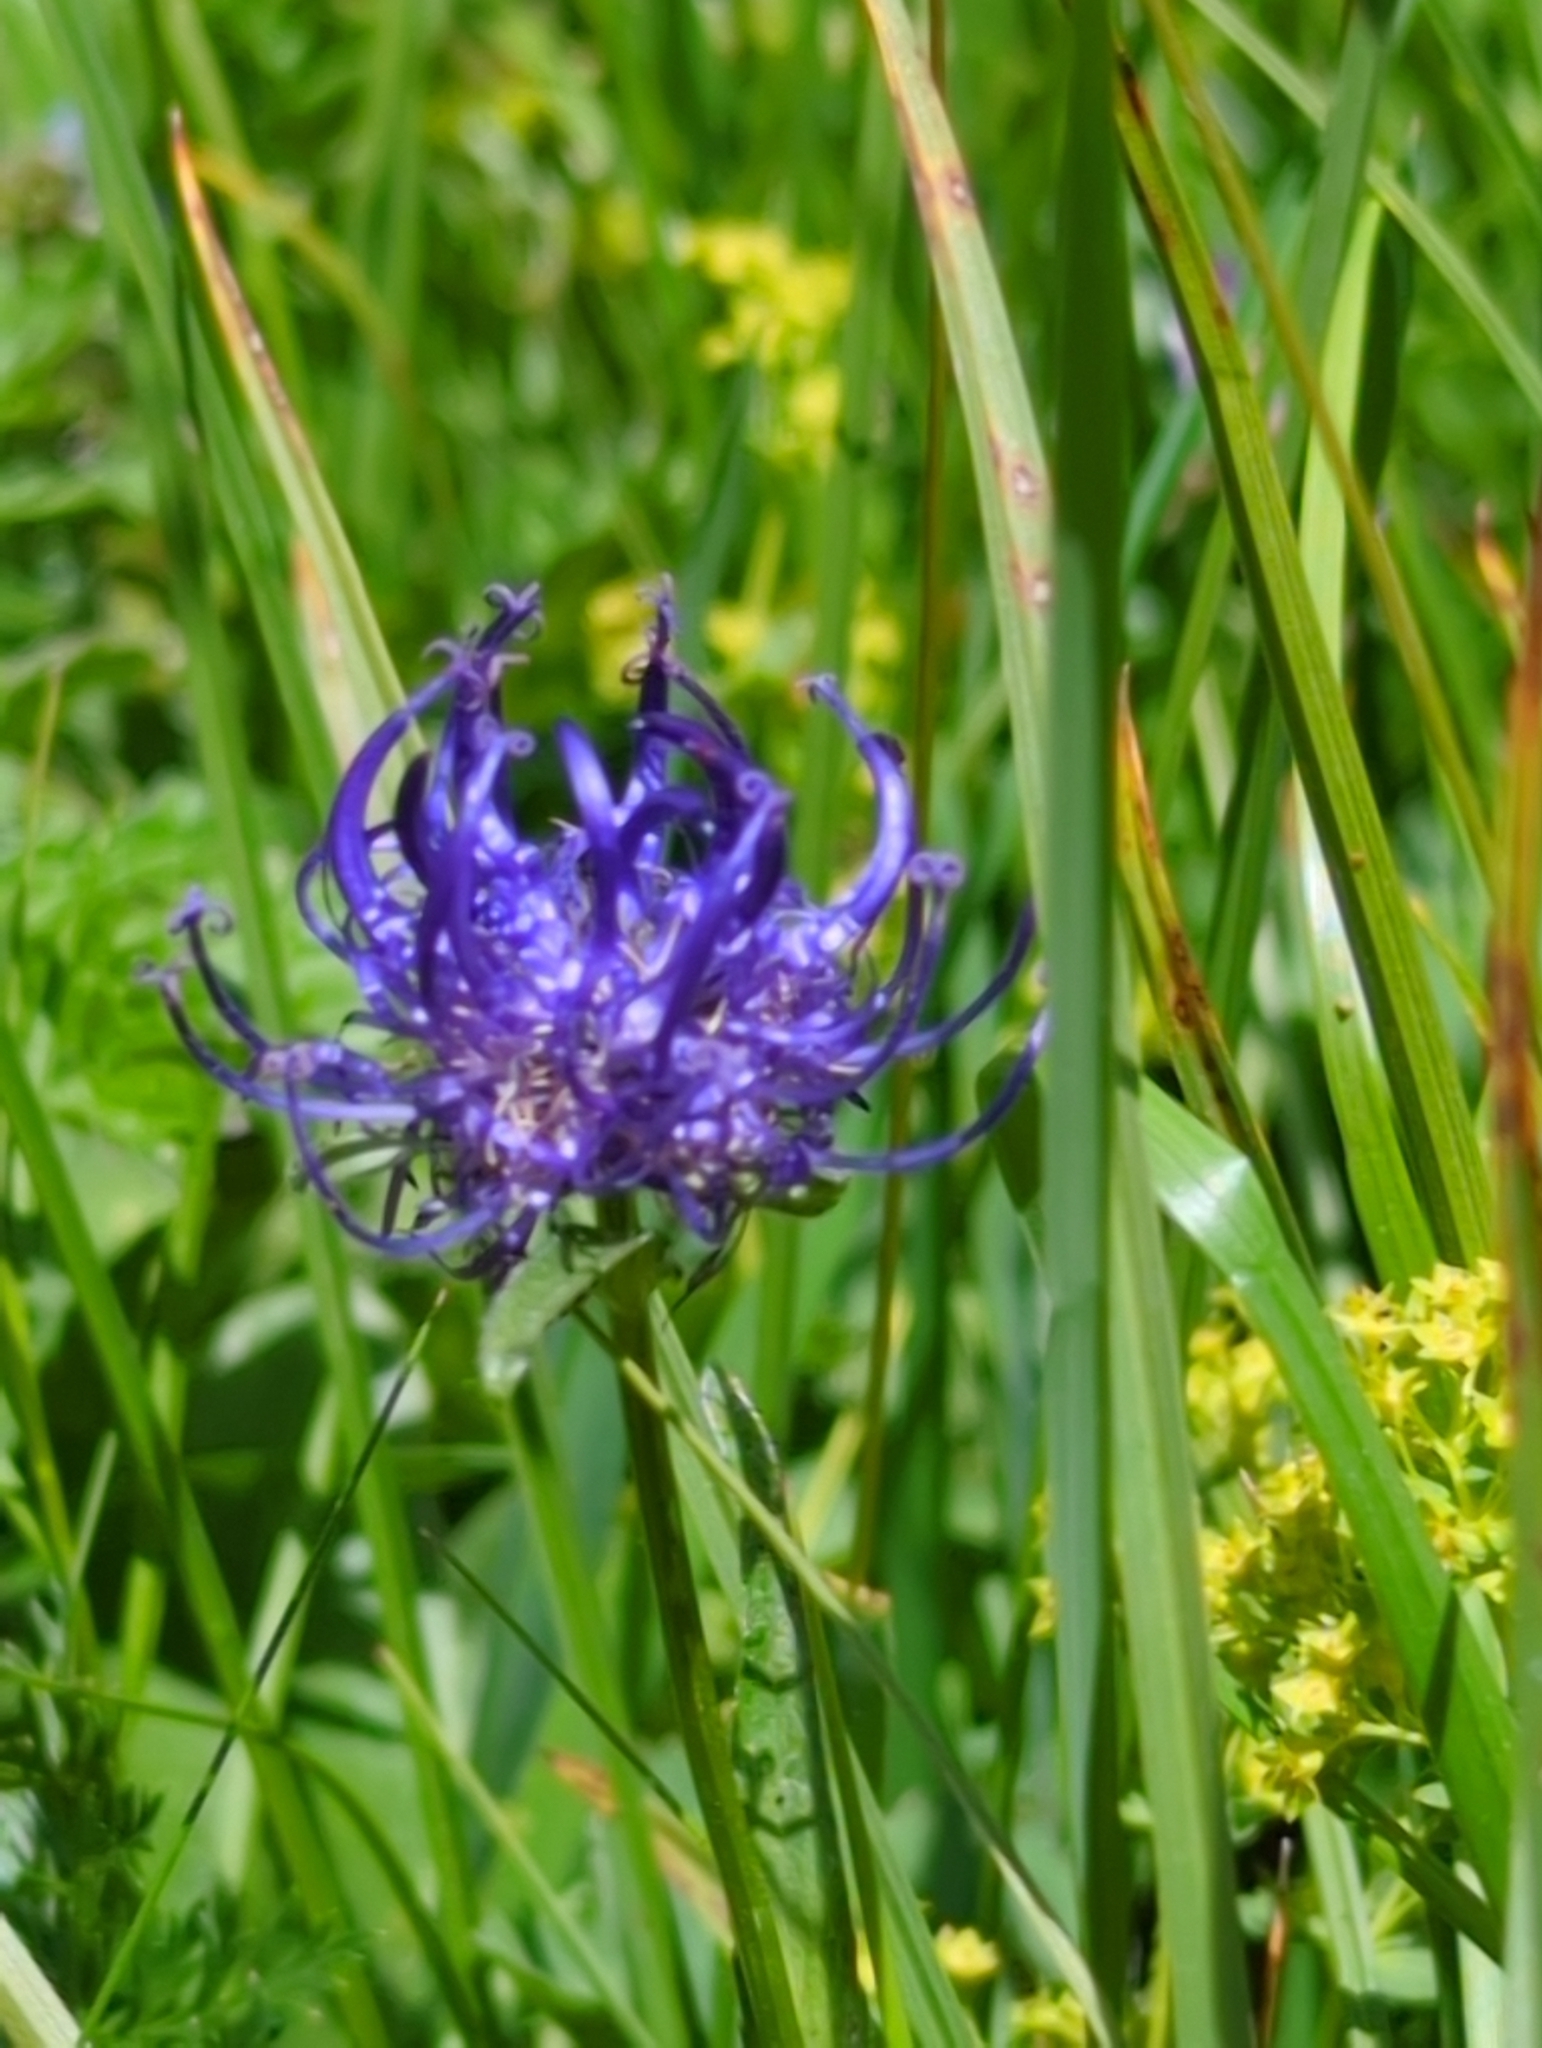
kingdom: Plantae
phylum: Tracheophyta
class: Magnoliopsida
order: Asterales
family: Campanulaceae
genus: Phyteuma
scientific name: Phyteuma orbiculare
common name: Round-headed rampion
